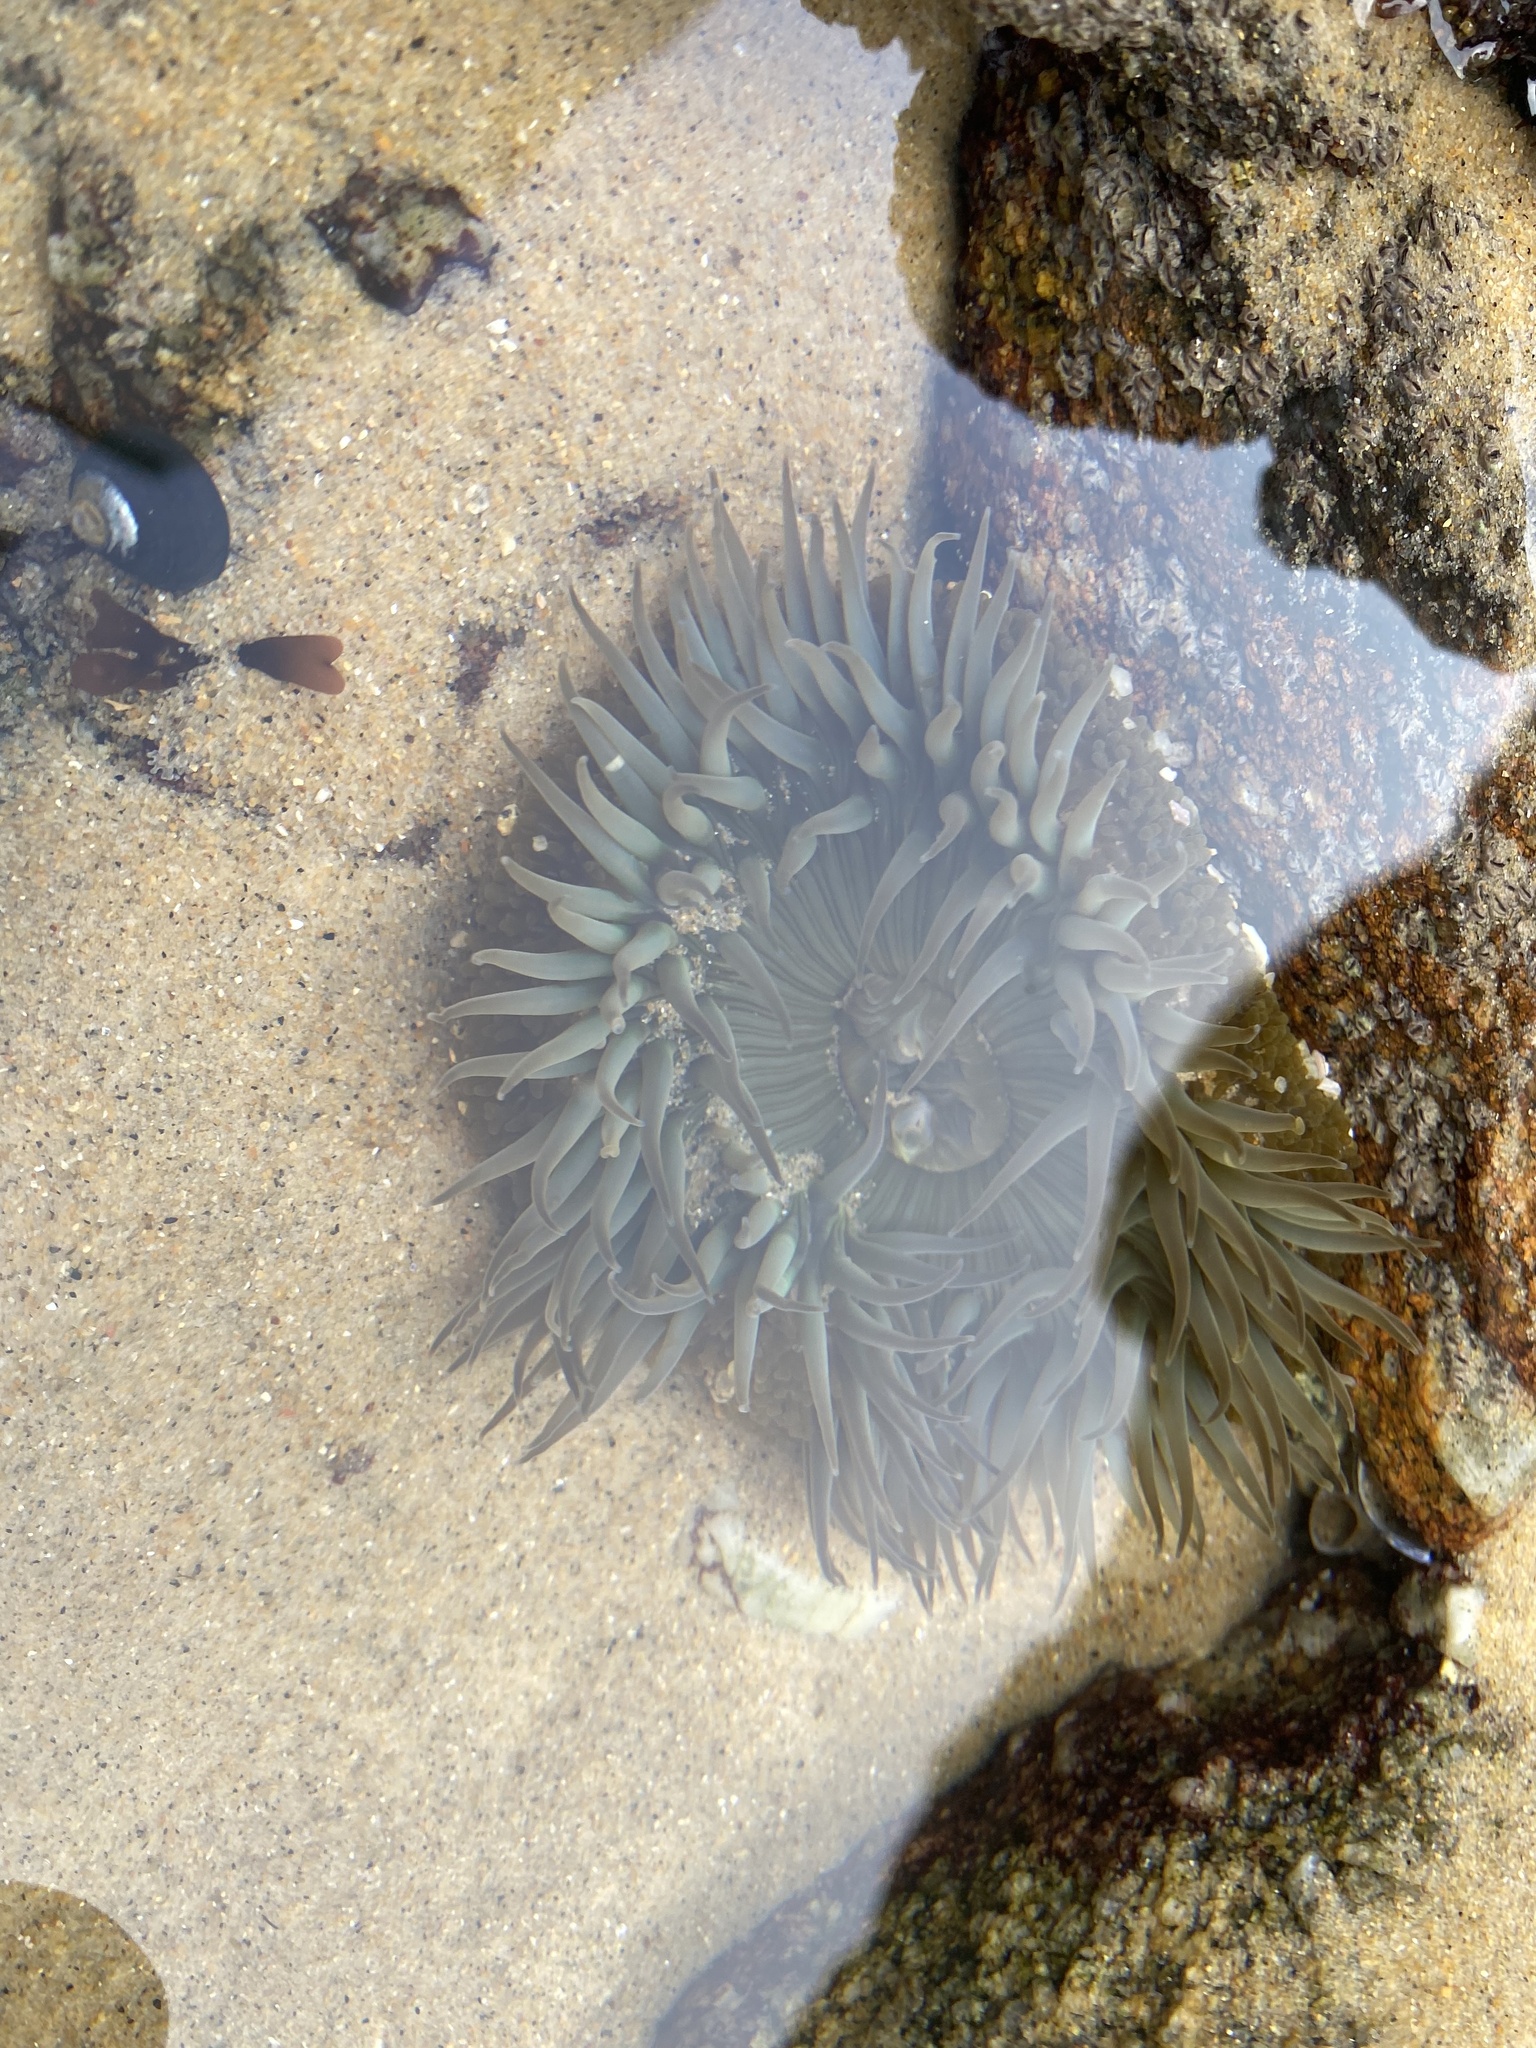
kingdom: Animalia
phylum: Cnidaria
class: Anthozoa
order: Actiniaria
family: Actiniidae
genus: Anthopleura
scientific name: Anthopleura sola
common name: Sun anemone
